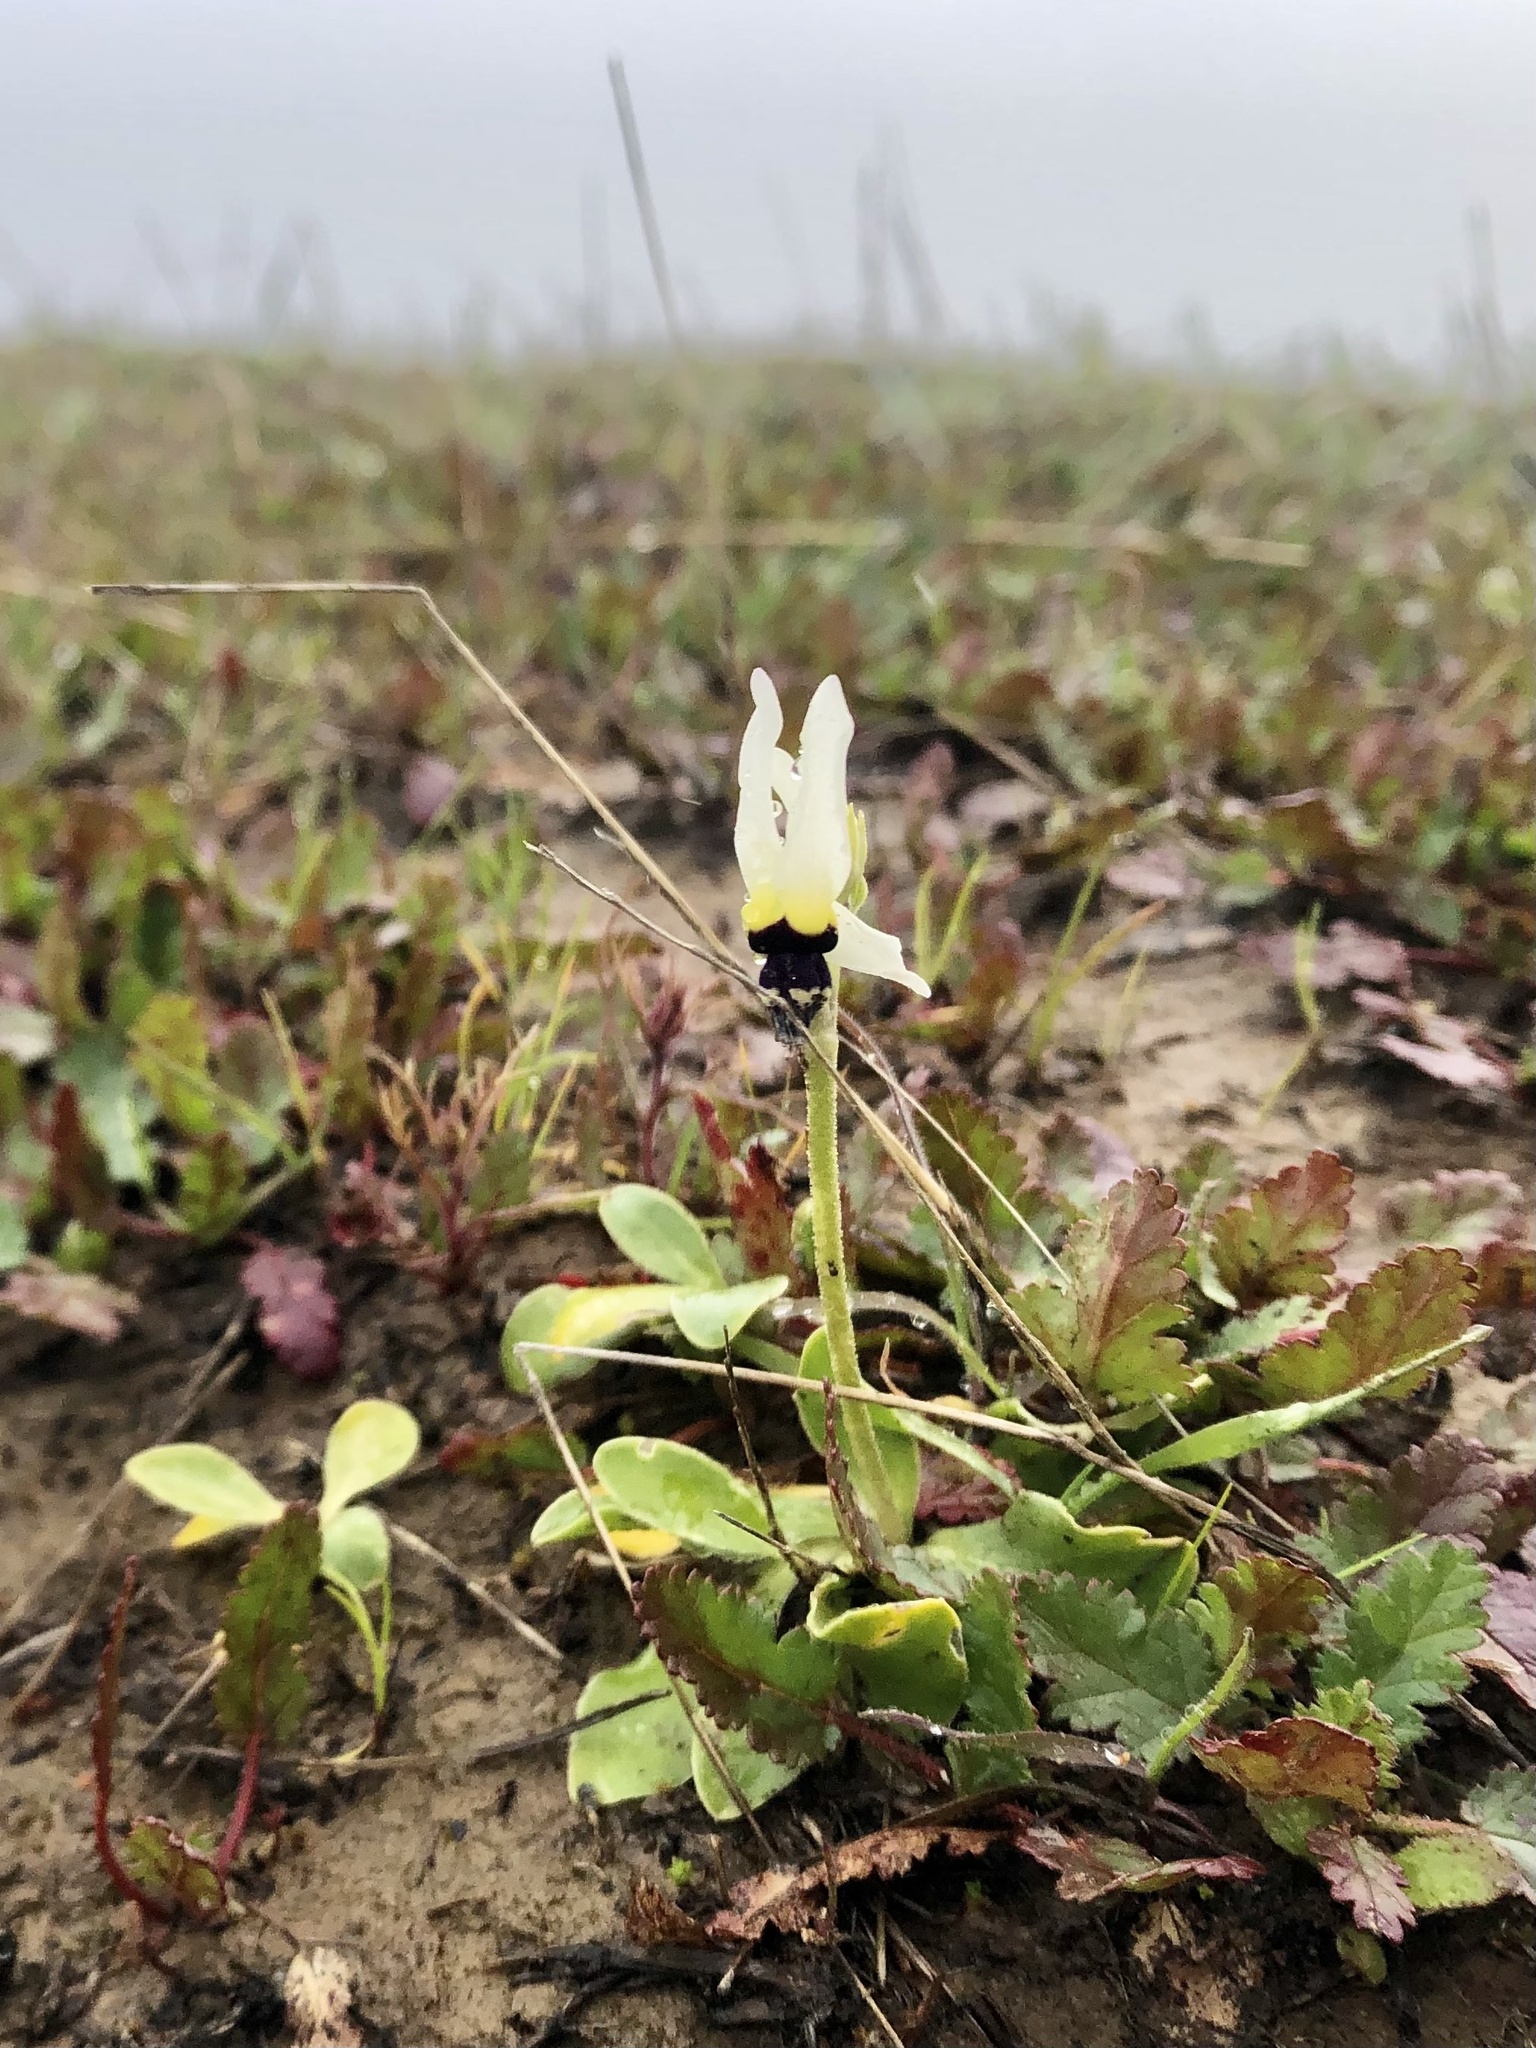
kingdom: Plantae
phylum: Tracheophyta
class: Magnoliopsida
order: Ericales
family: Primulaceae
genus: Dodecatheon
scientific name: Dodecatheon clevelandii
